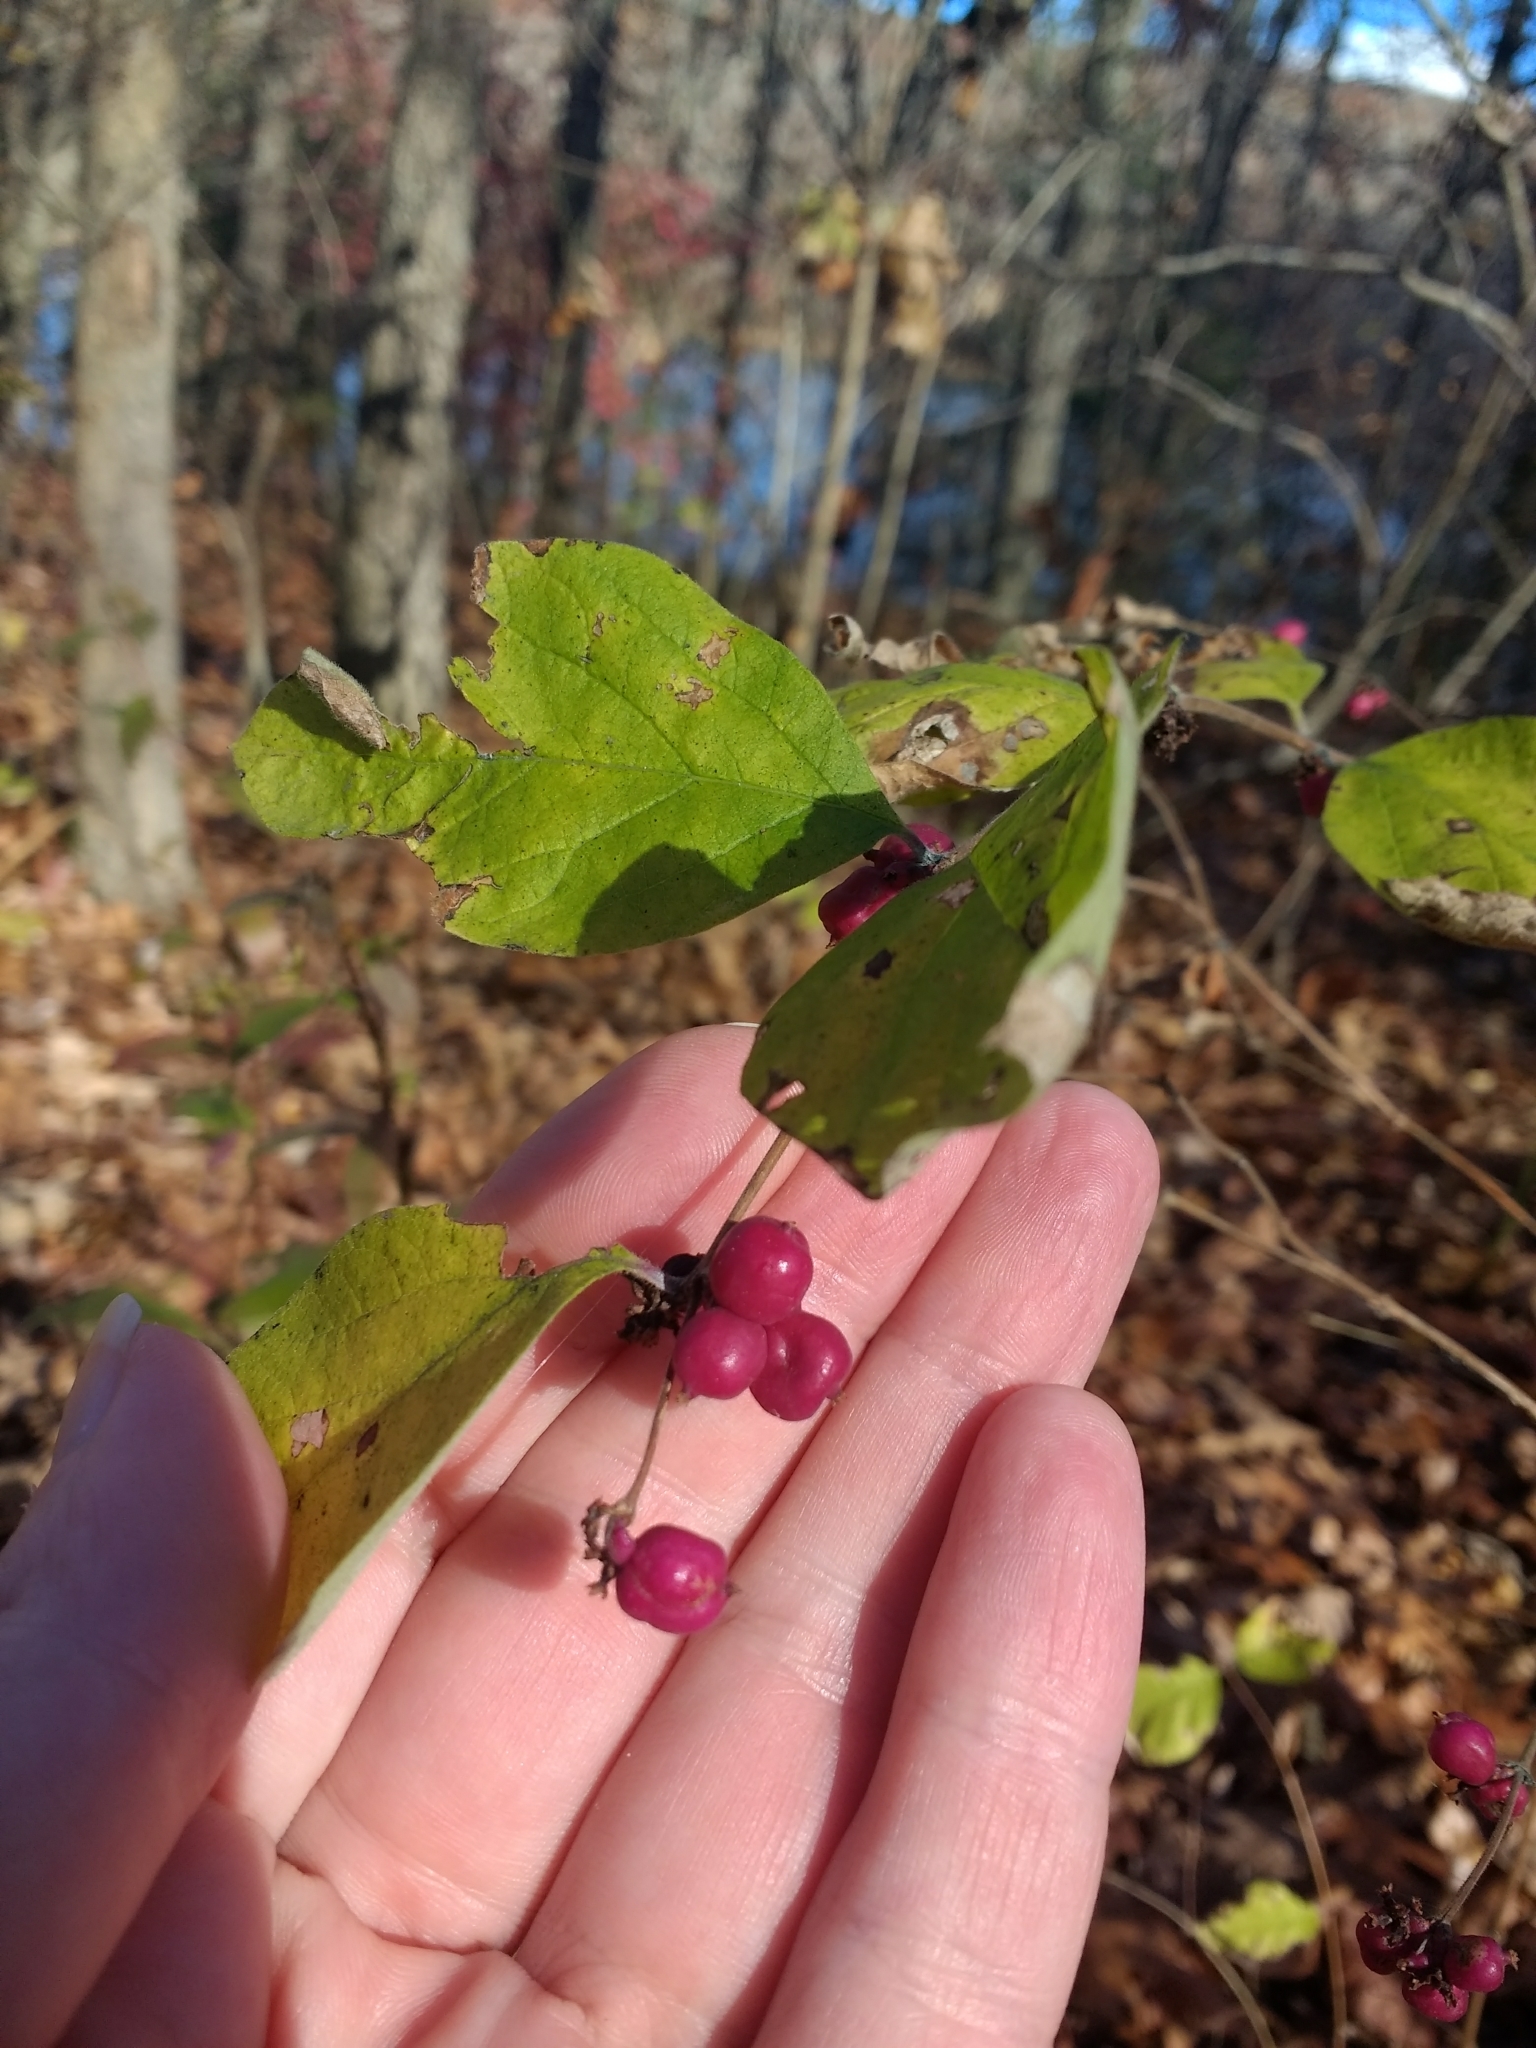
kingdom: Plantae
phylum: Tracheophyta
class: Magnoliopsida
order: Dipsacales
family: Caprifoliaceae
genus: Symphoricarpos
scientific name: Symphoricarpos orbiculatus
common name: Coralberry
